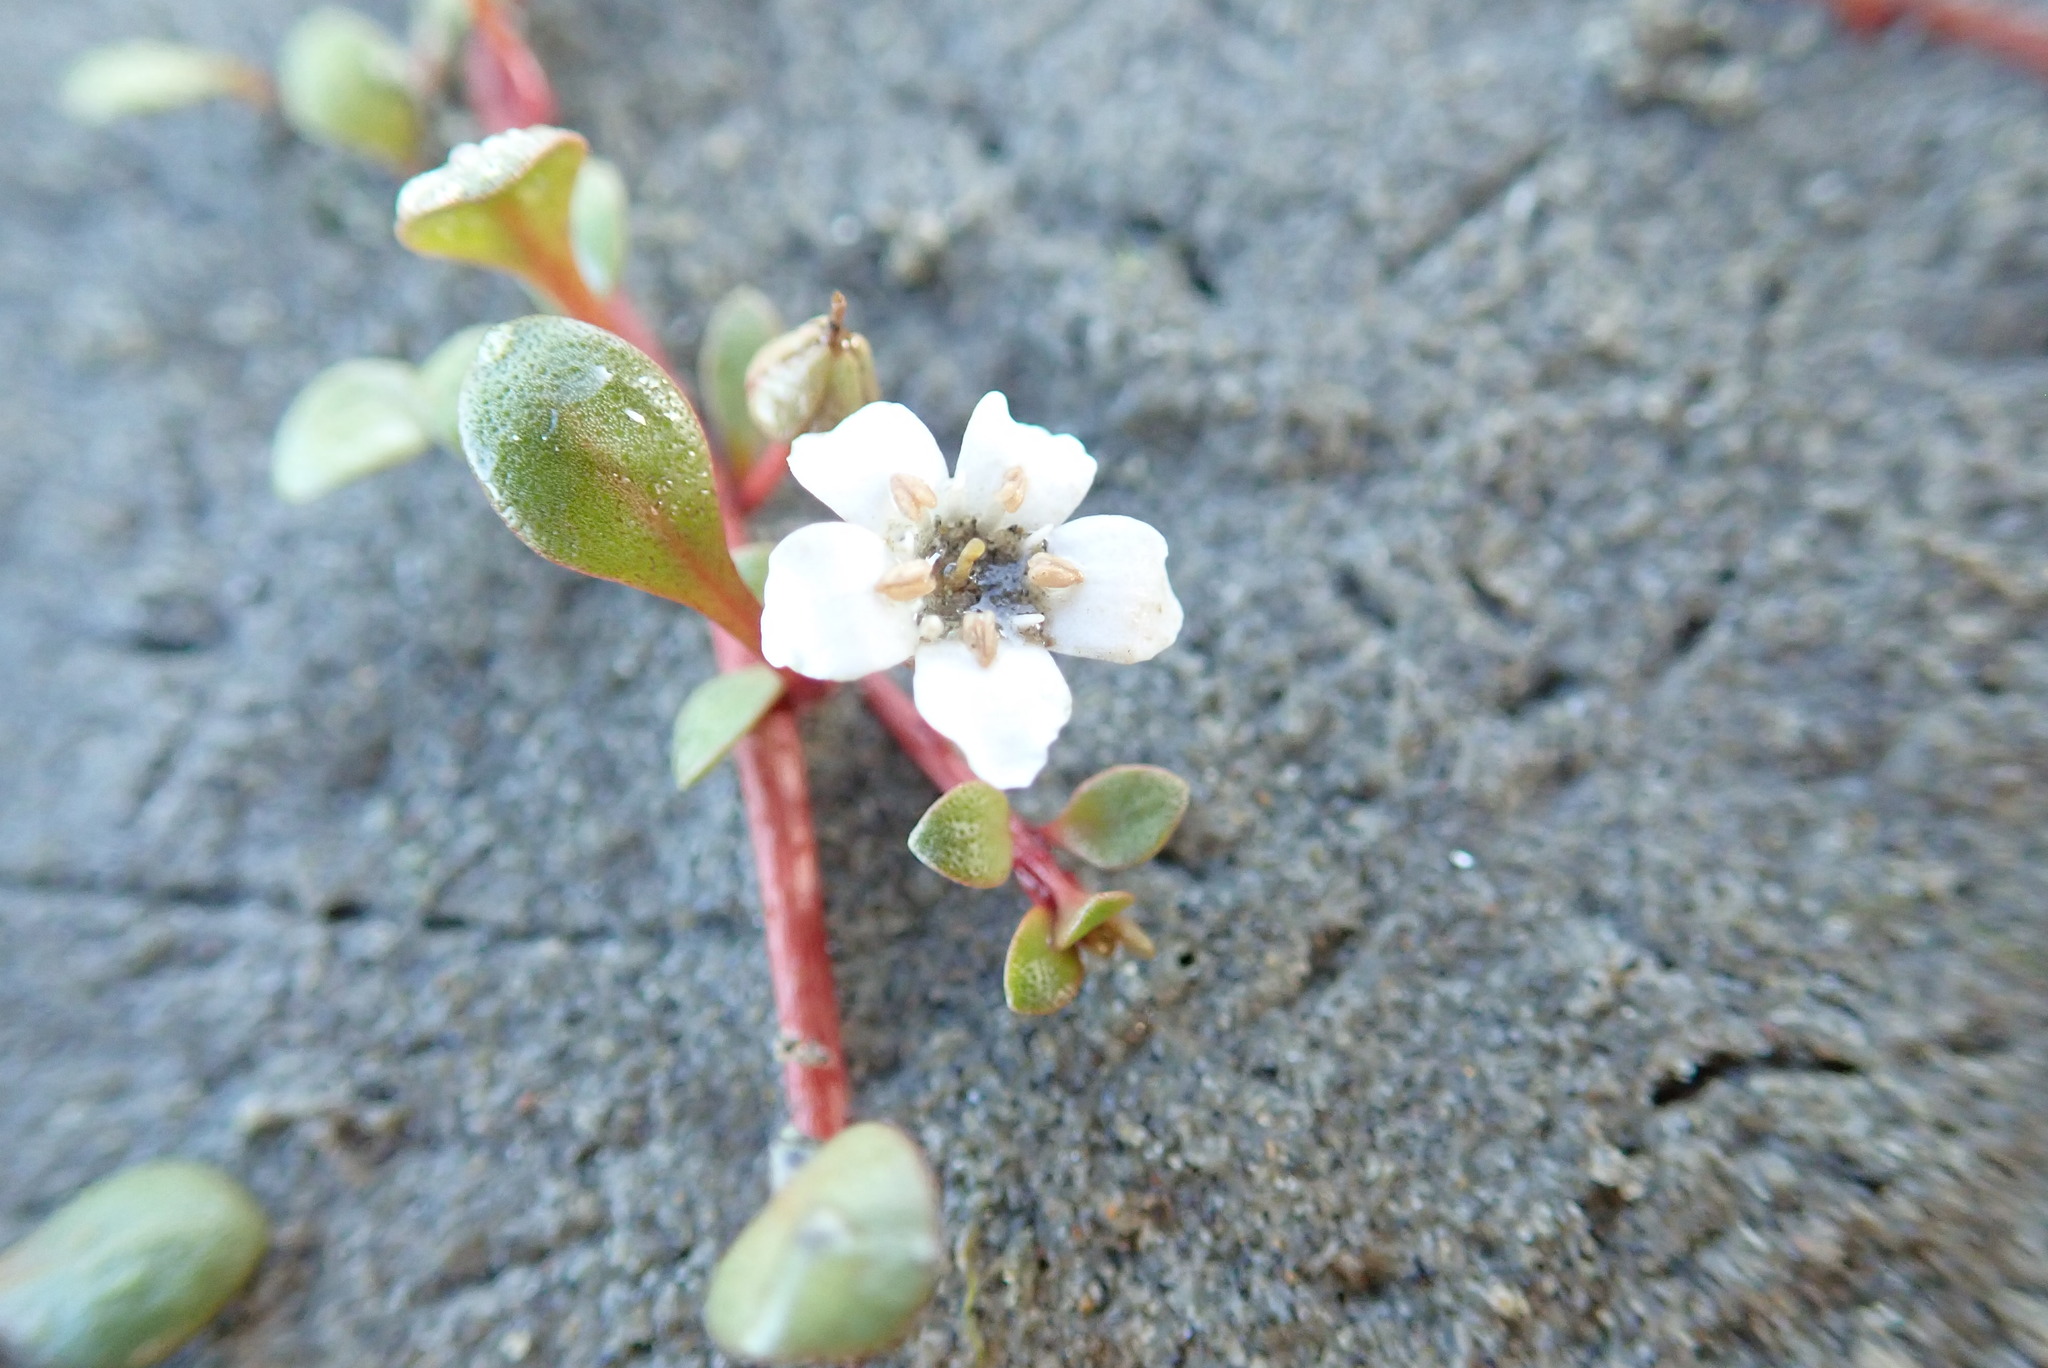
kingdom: Plantae
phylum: Tracheophyta
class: Magnoliopsida
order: Ericales
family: Primulaceae
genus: Samolus
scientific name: Samolus repens
